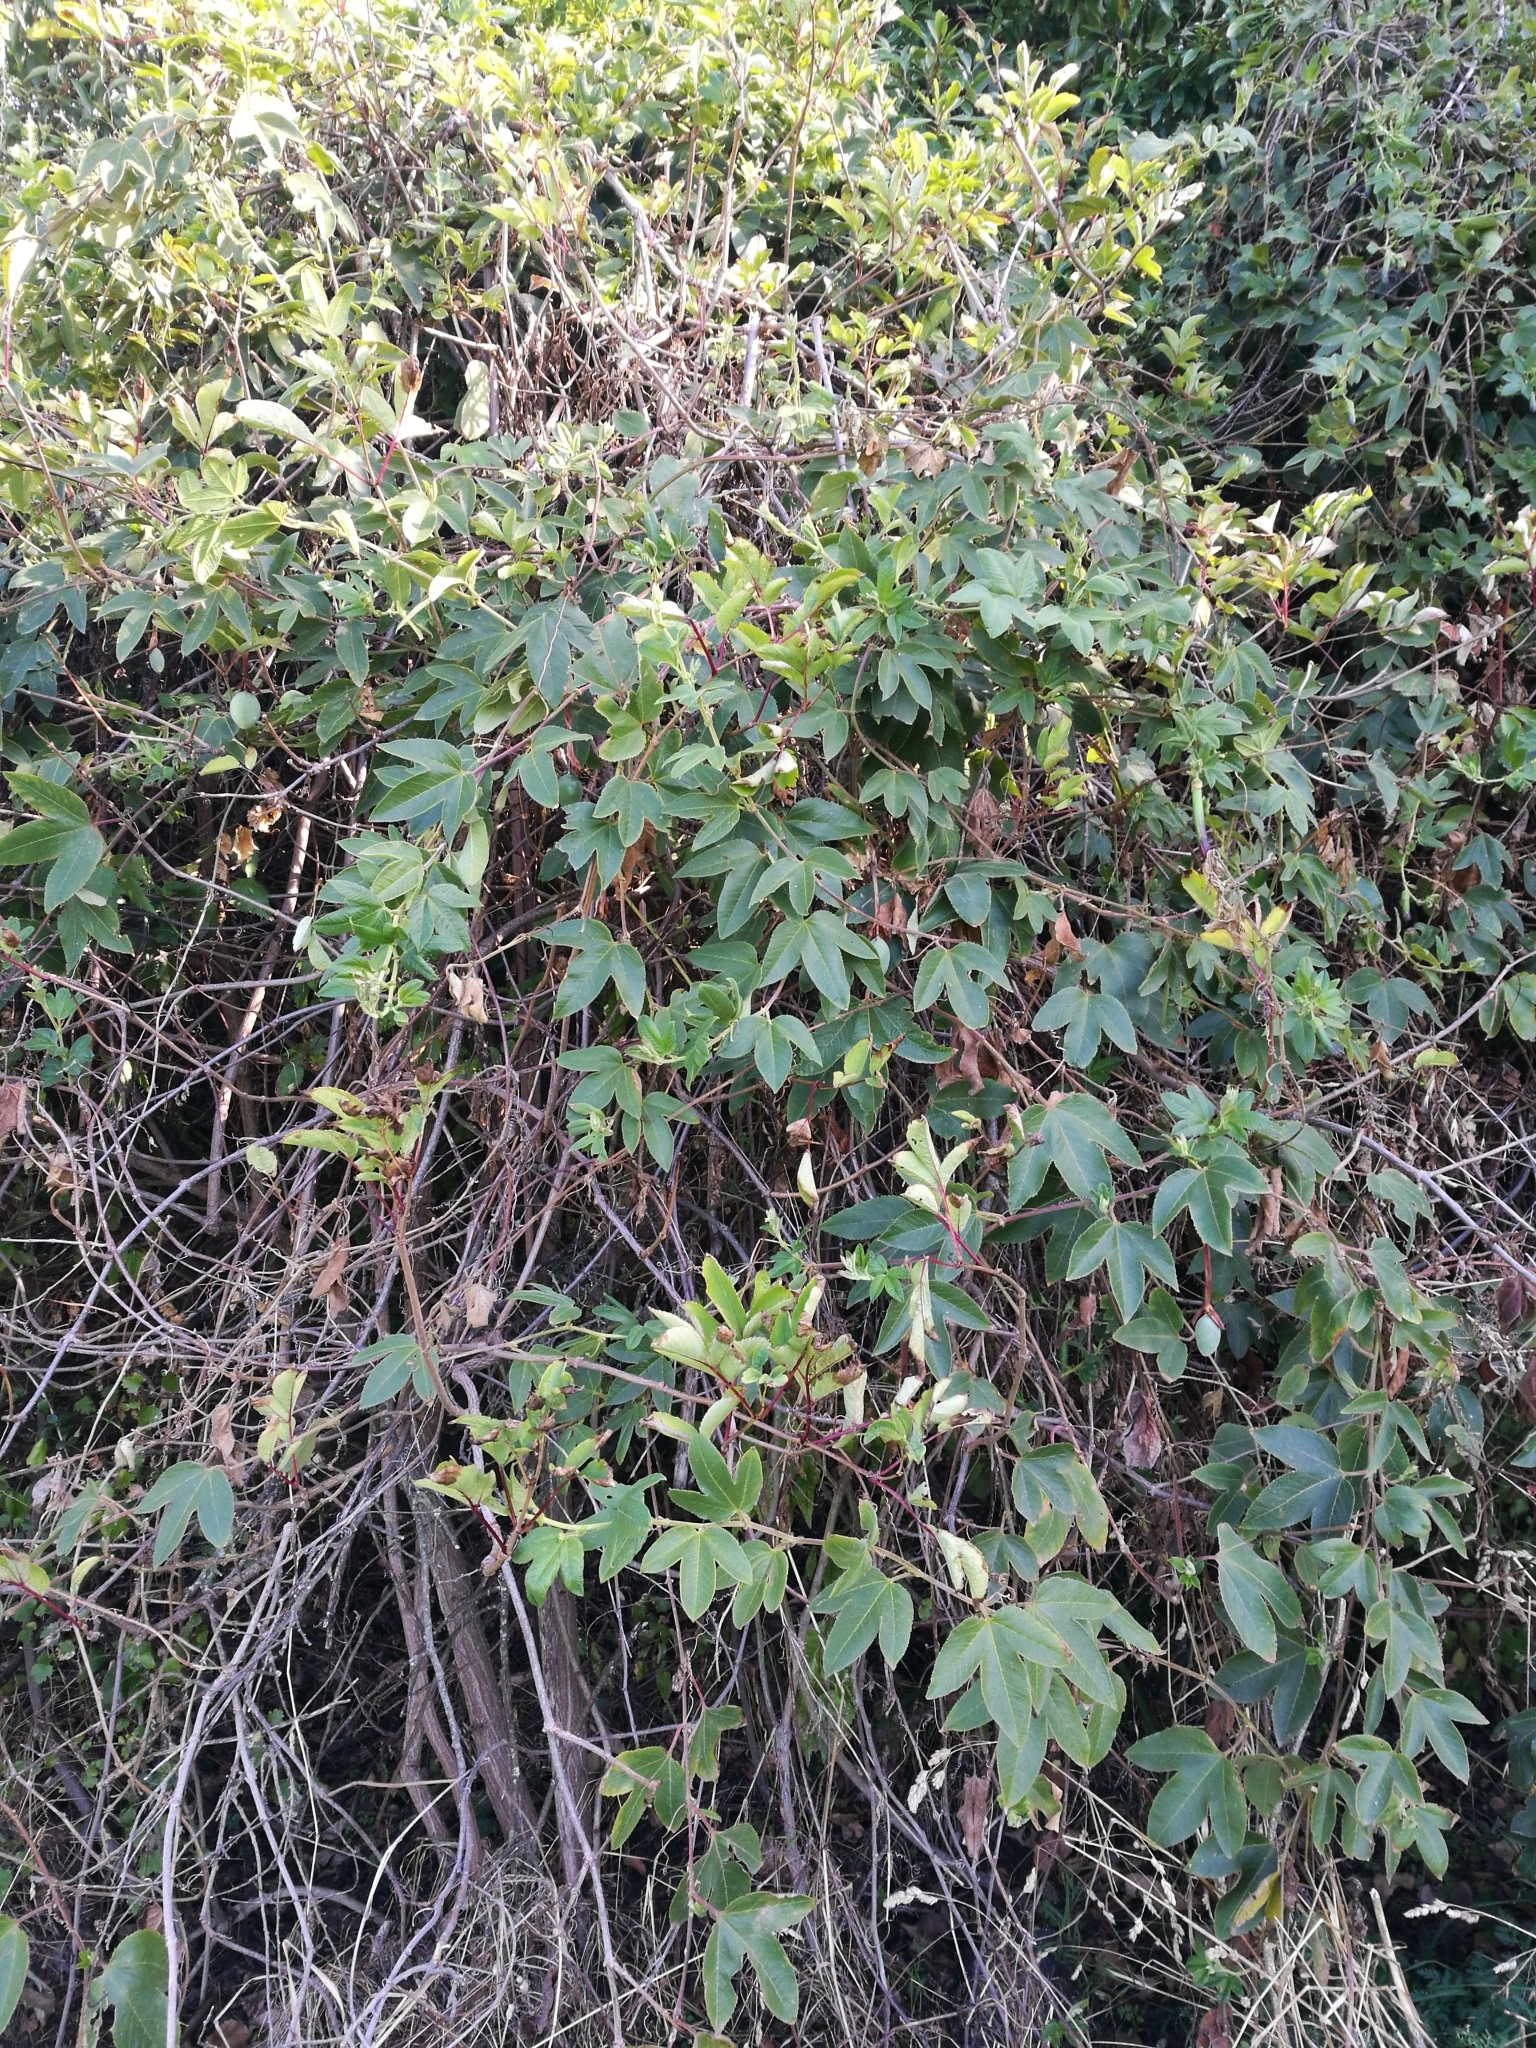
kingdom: Plantae
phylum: Tracheophyta
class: Magnoliopsida
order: Malpighiales
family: Passifloraceae
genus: Passiflora
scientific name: Passiflora tripartita
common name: Banana poka
